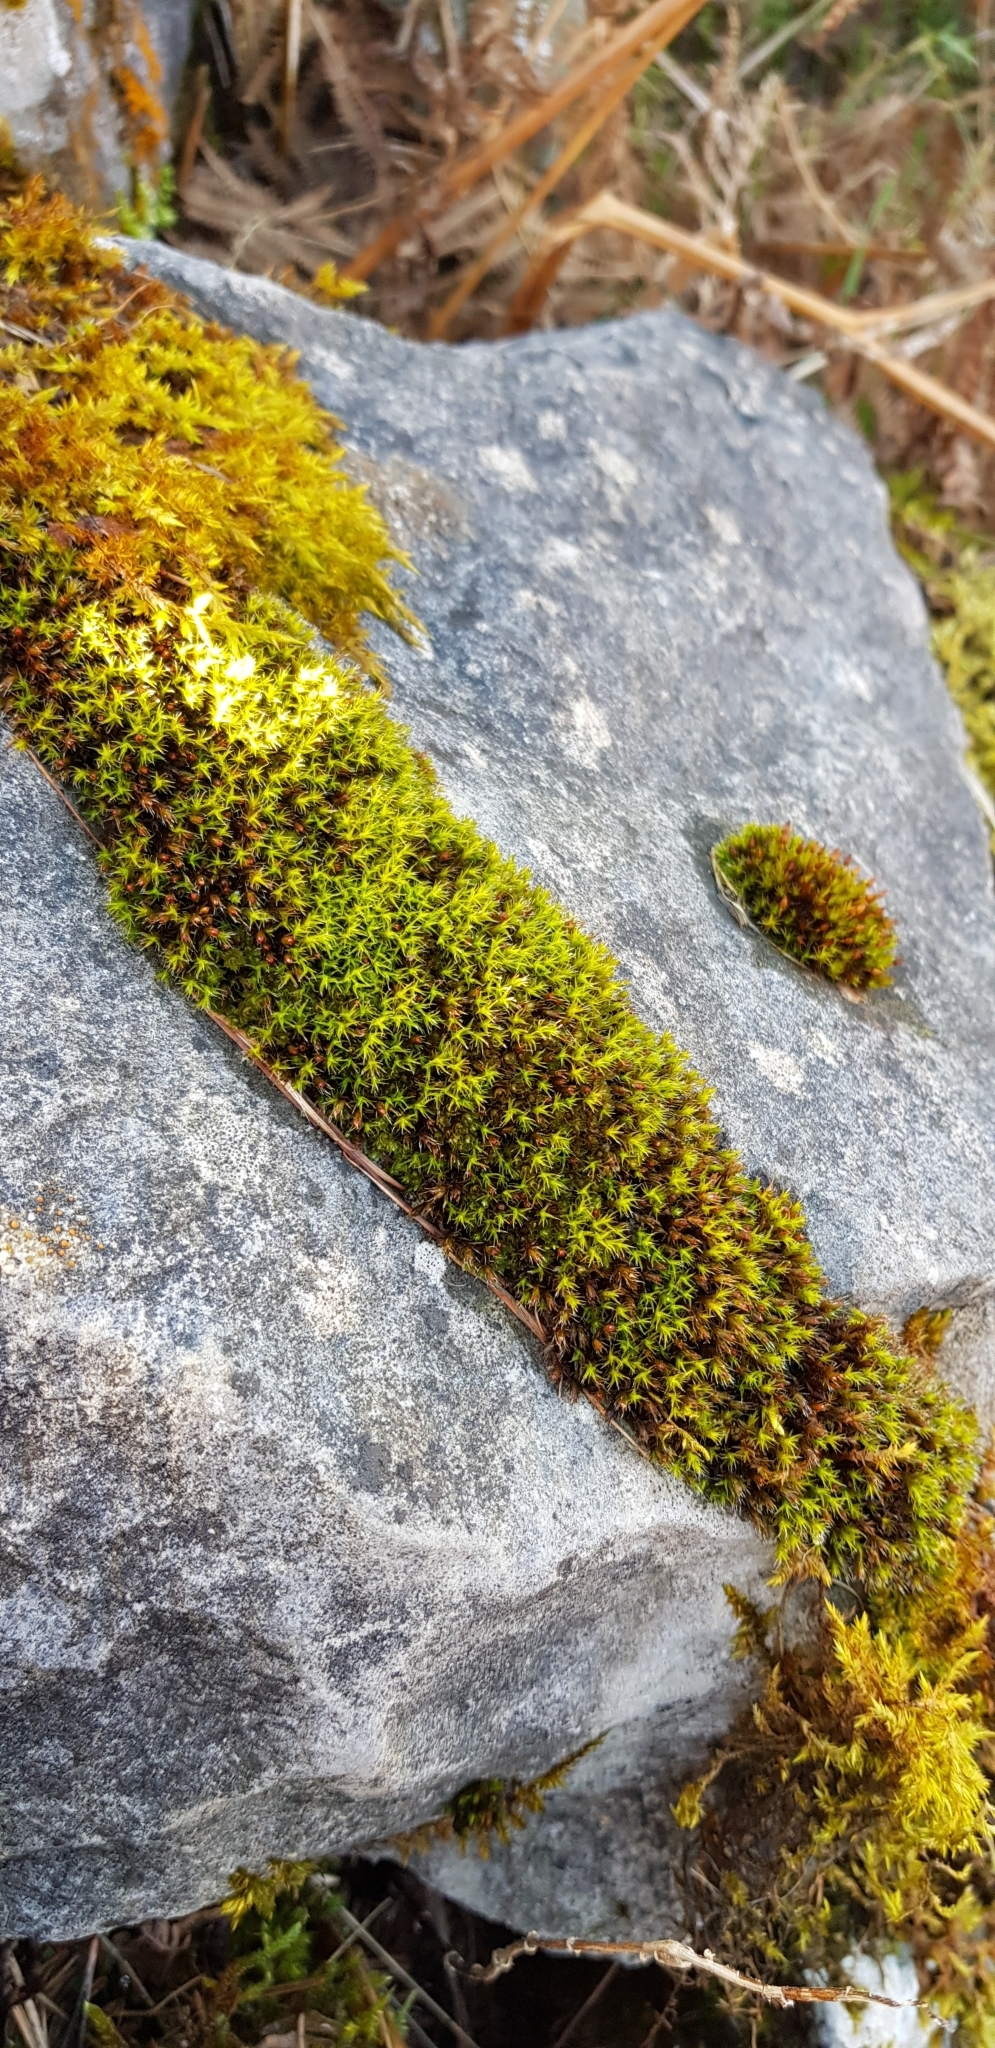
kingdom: Plantae
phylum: Bryophyta
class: Bryopsida
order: Grimmiales
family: Grimmiaceae
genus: Schistidium
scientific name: Schistidium crassipilum
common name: Thickpoint bloom moss
